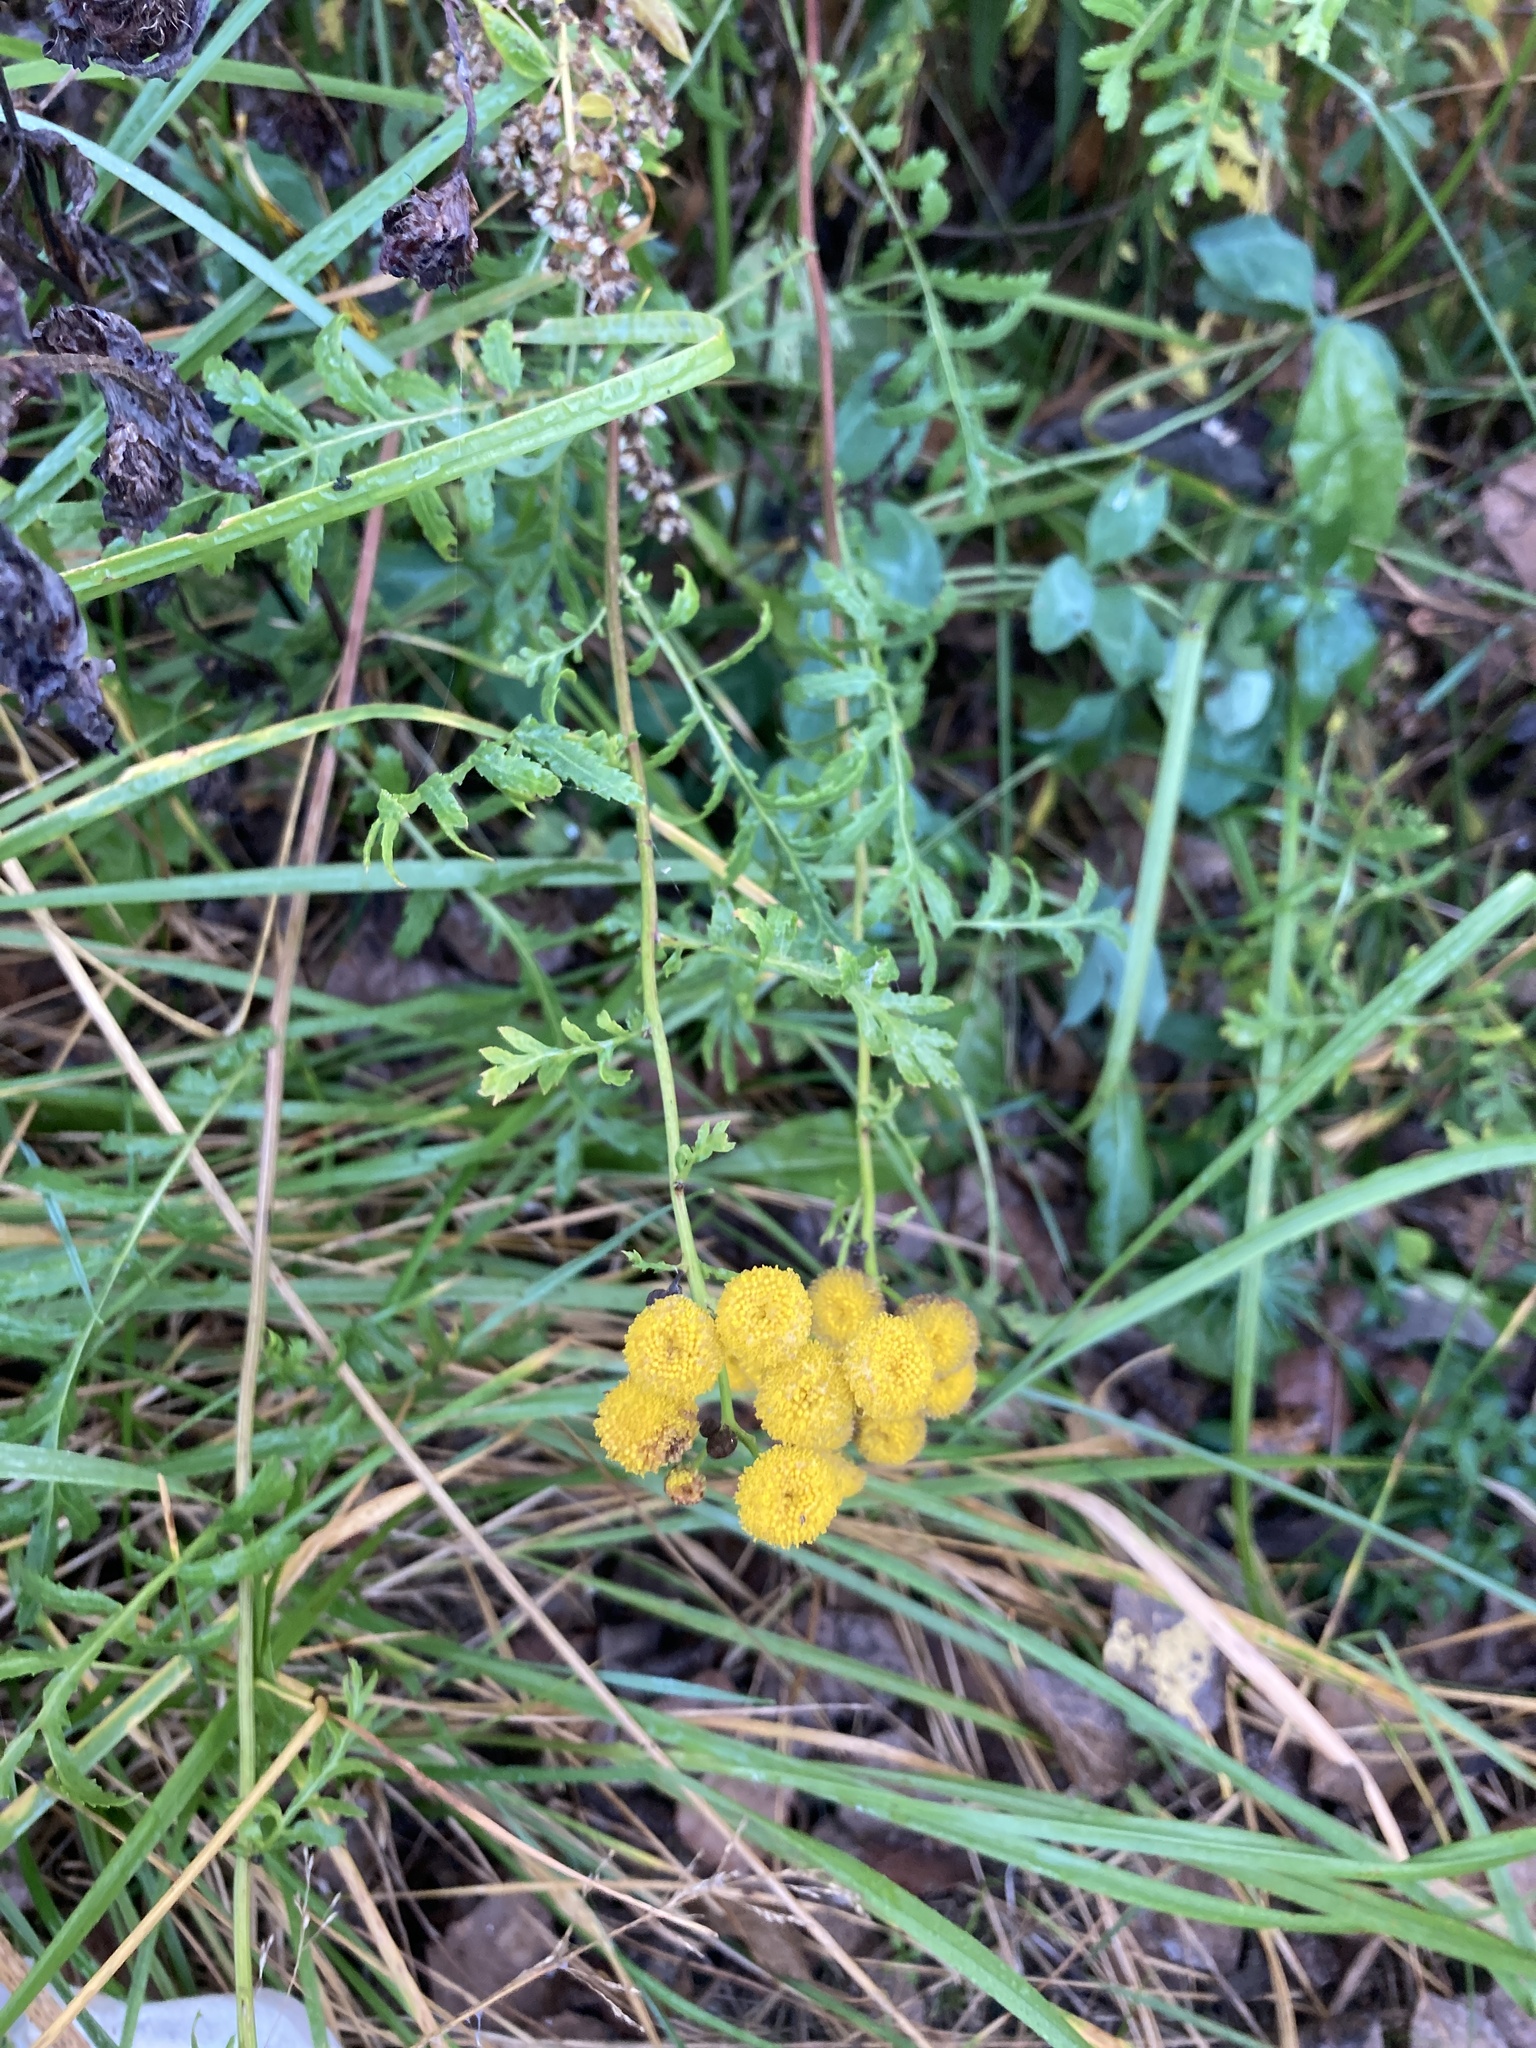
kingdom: Plantae
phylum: Tracheophyta
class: Magnoliopsida
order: Asterales
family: Asteraceae
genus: Tanacetum
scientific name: Tanacetum vulgare
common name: Common tansy
